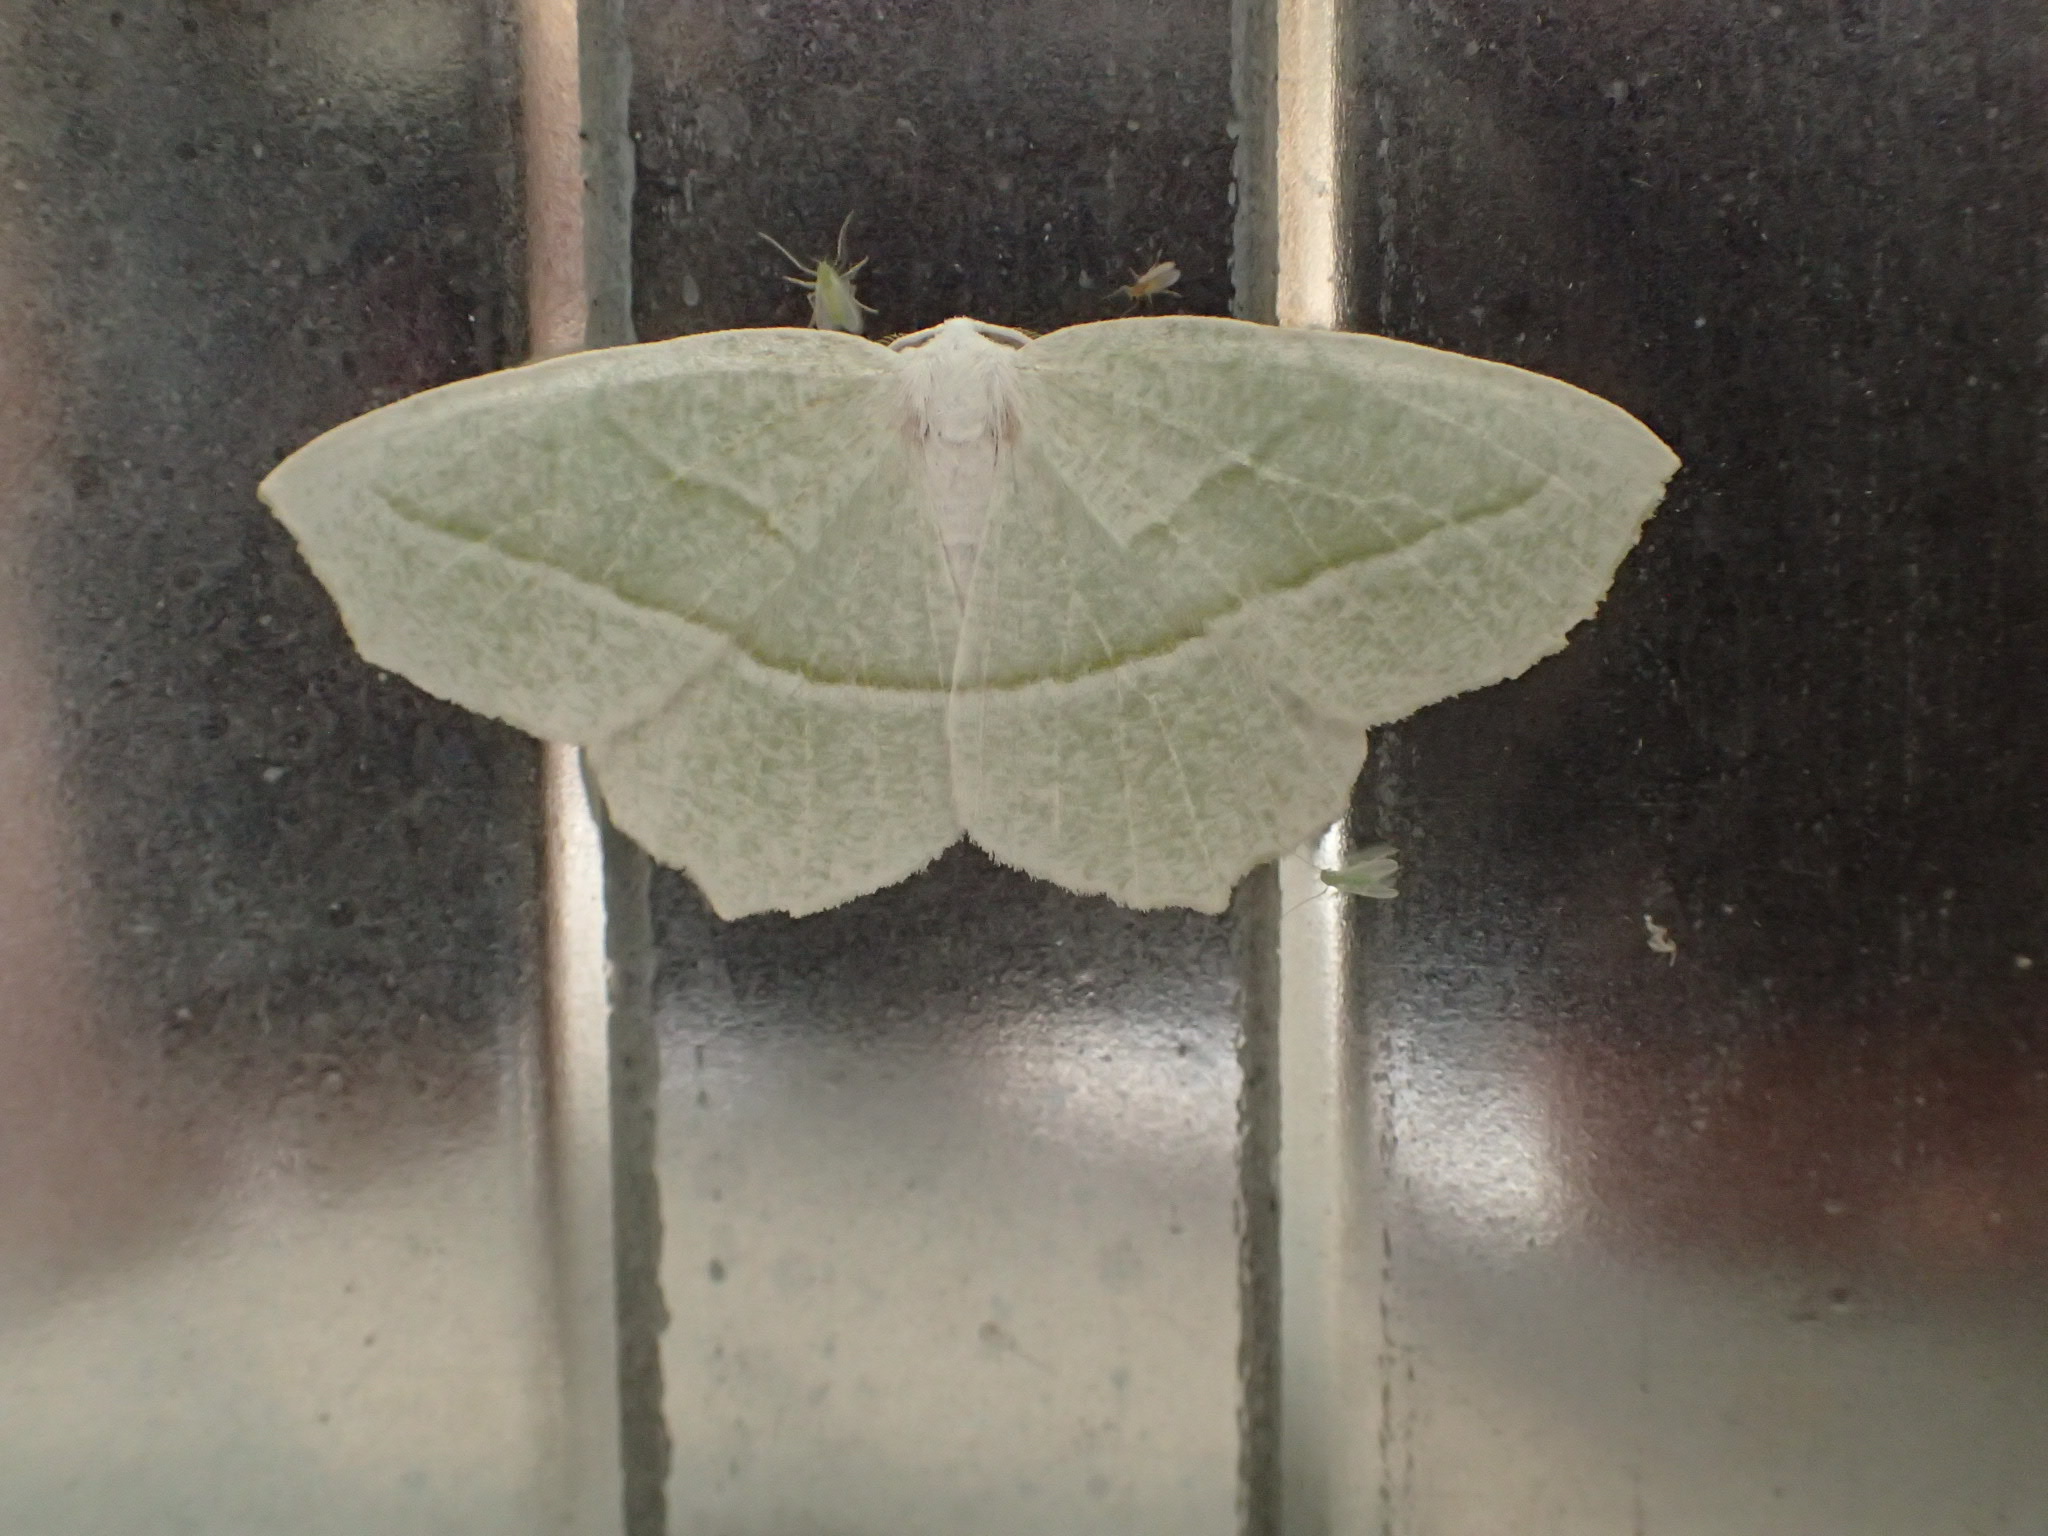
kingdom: Animalia
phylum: Arthropoda
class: Insecta
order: Lepidoptera
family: Geometridae
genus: Campaea
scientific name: Campaea perlata
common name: Fringed looper
